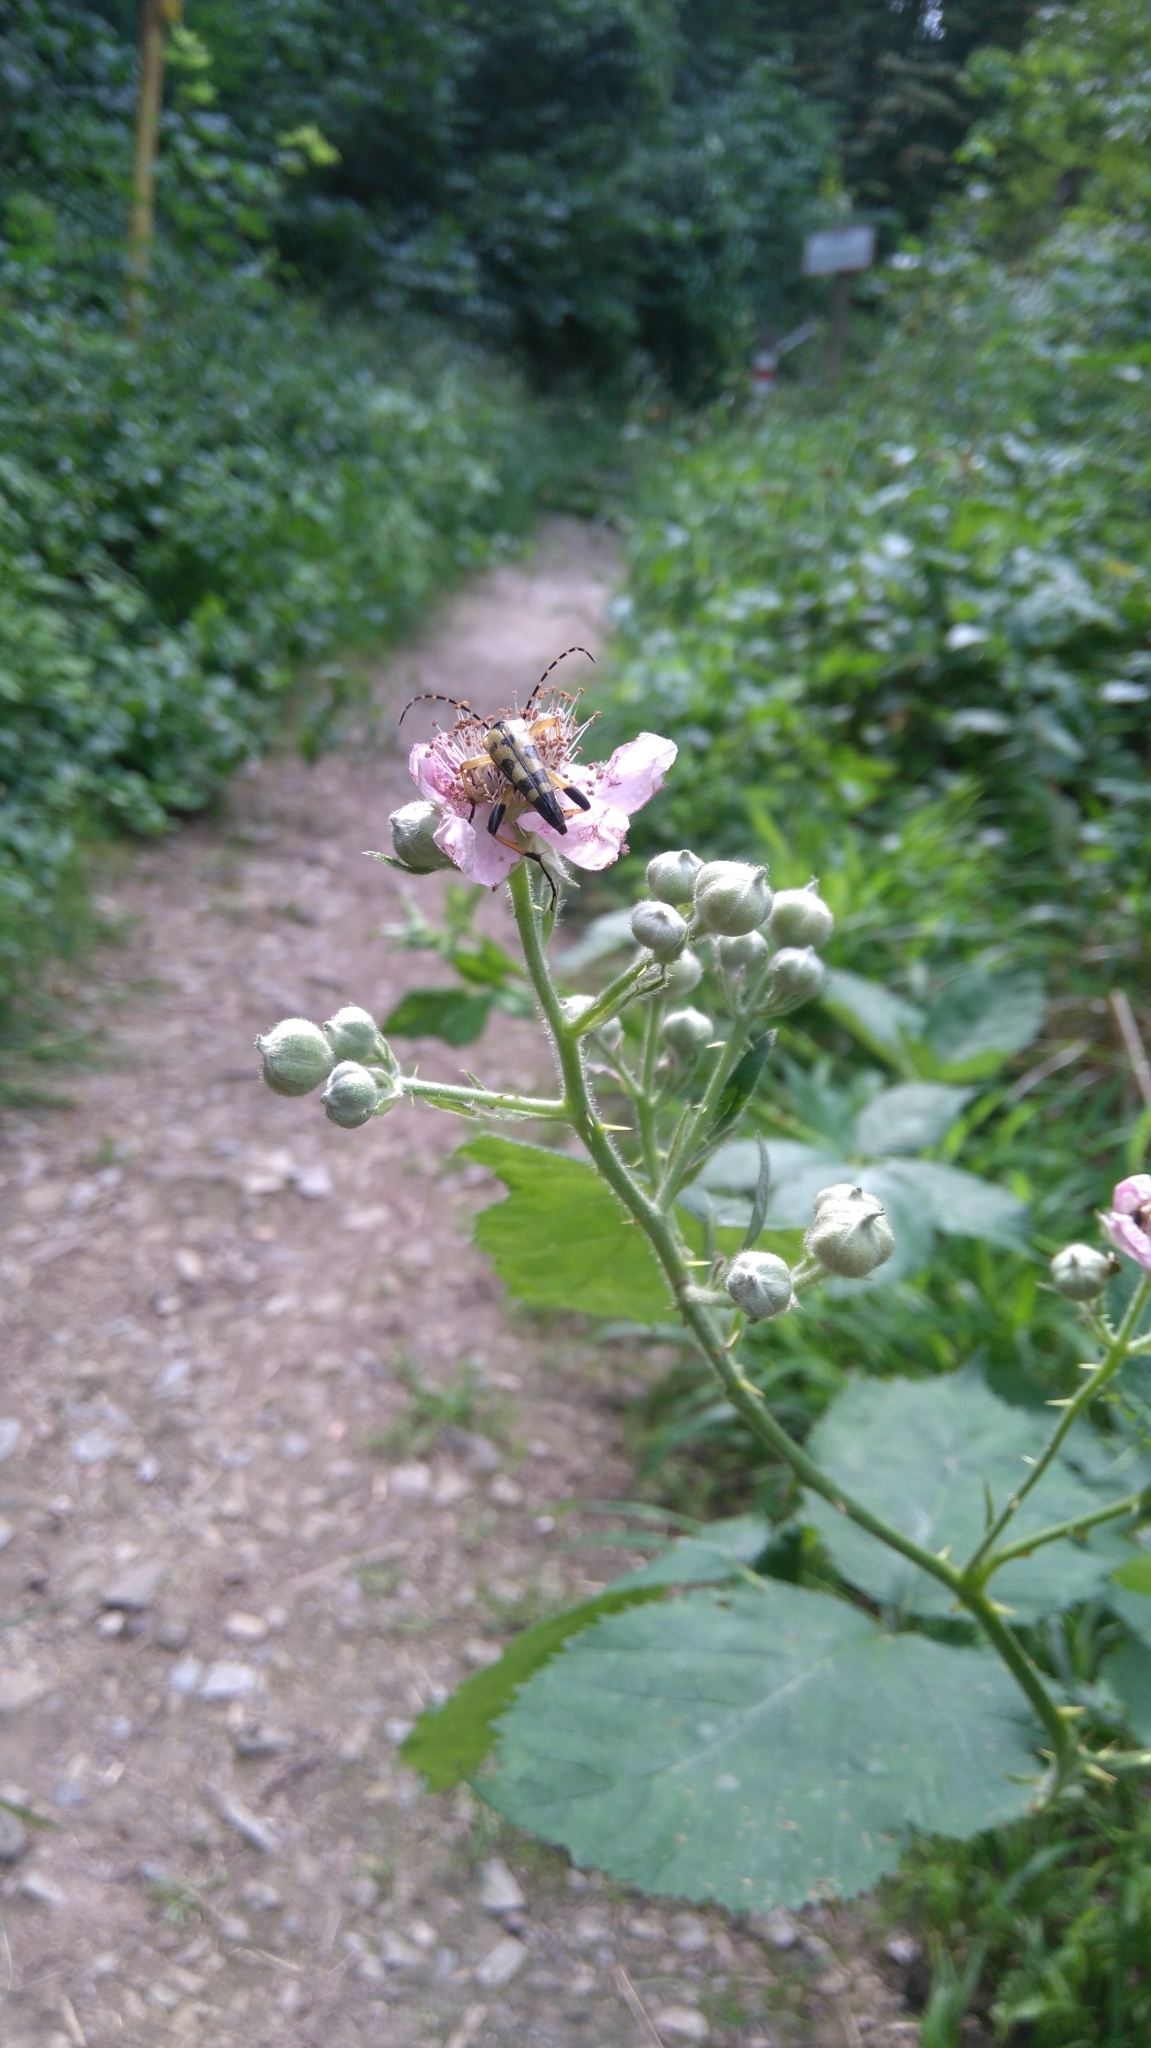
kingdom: Animalia
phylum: Arthropoda
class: Insecta
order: Coleoptera
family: Cerambycidae
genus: Rutpela
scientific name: Rutpela maculata
